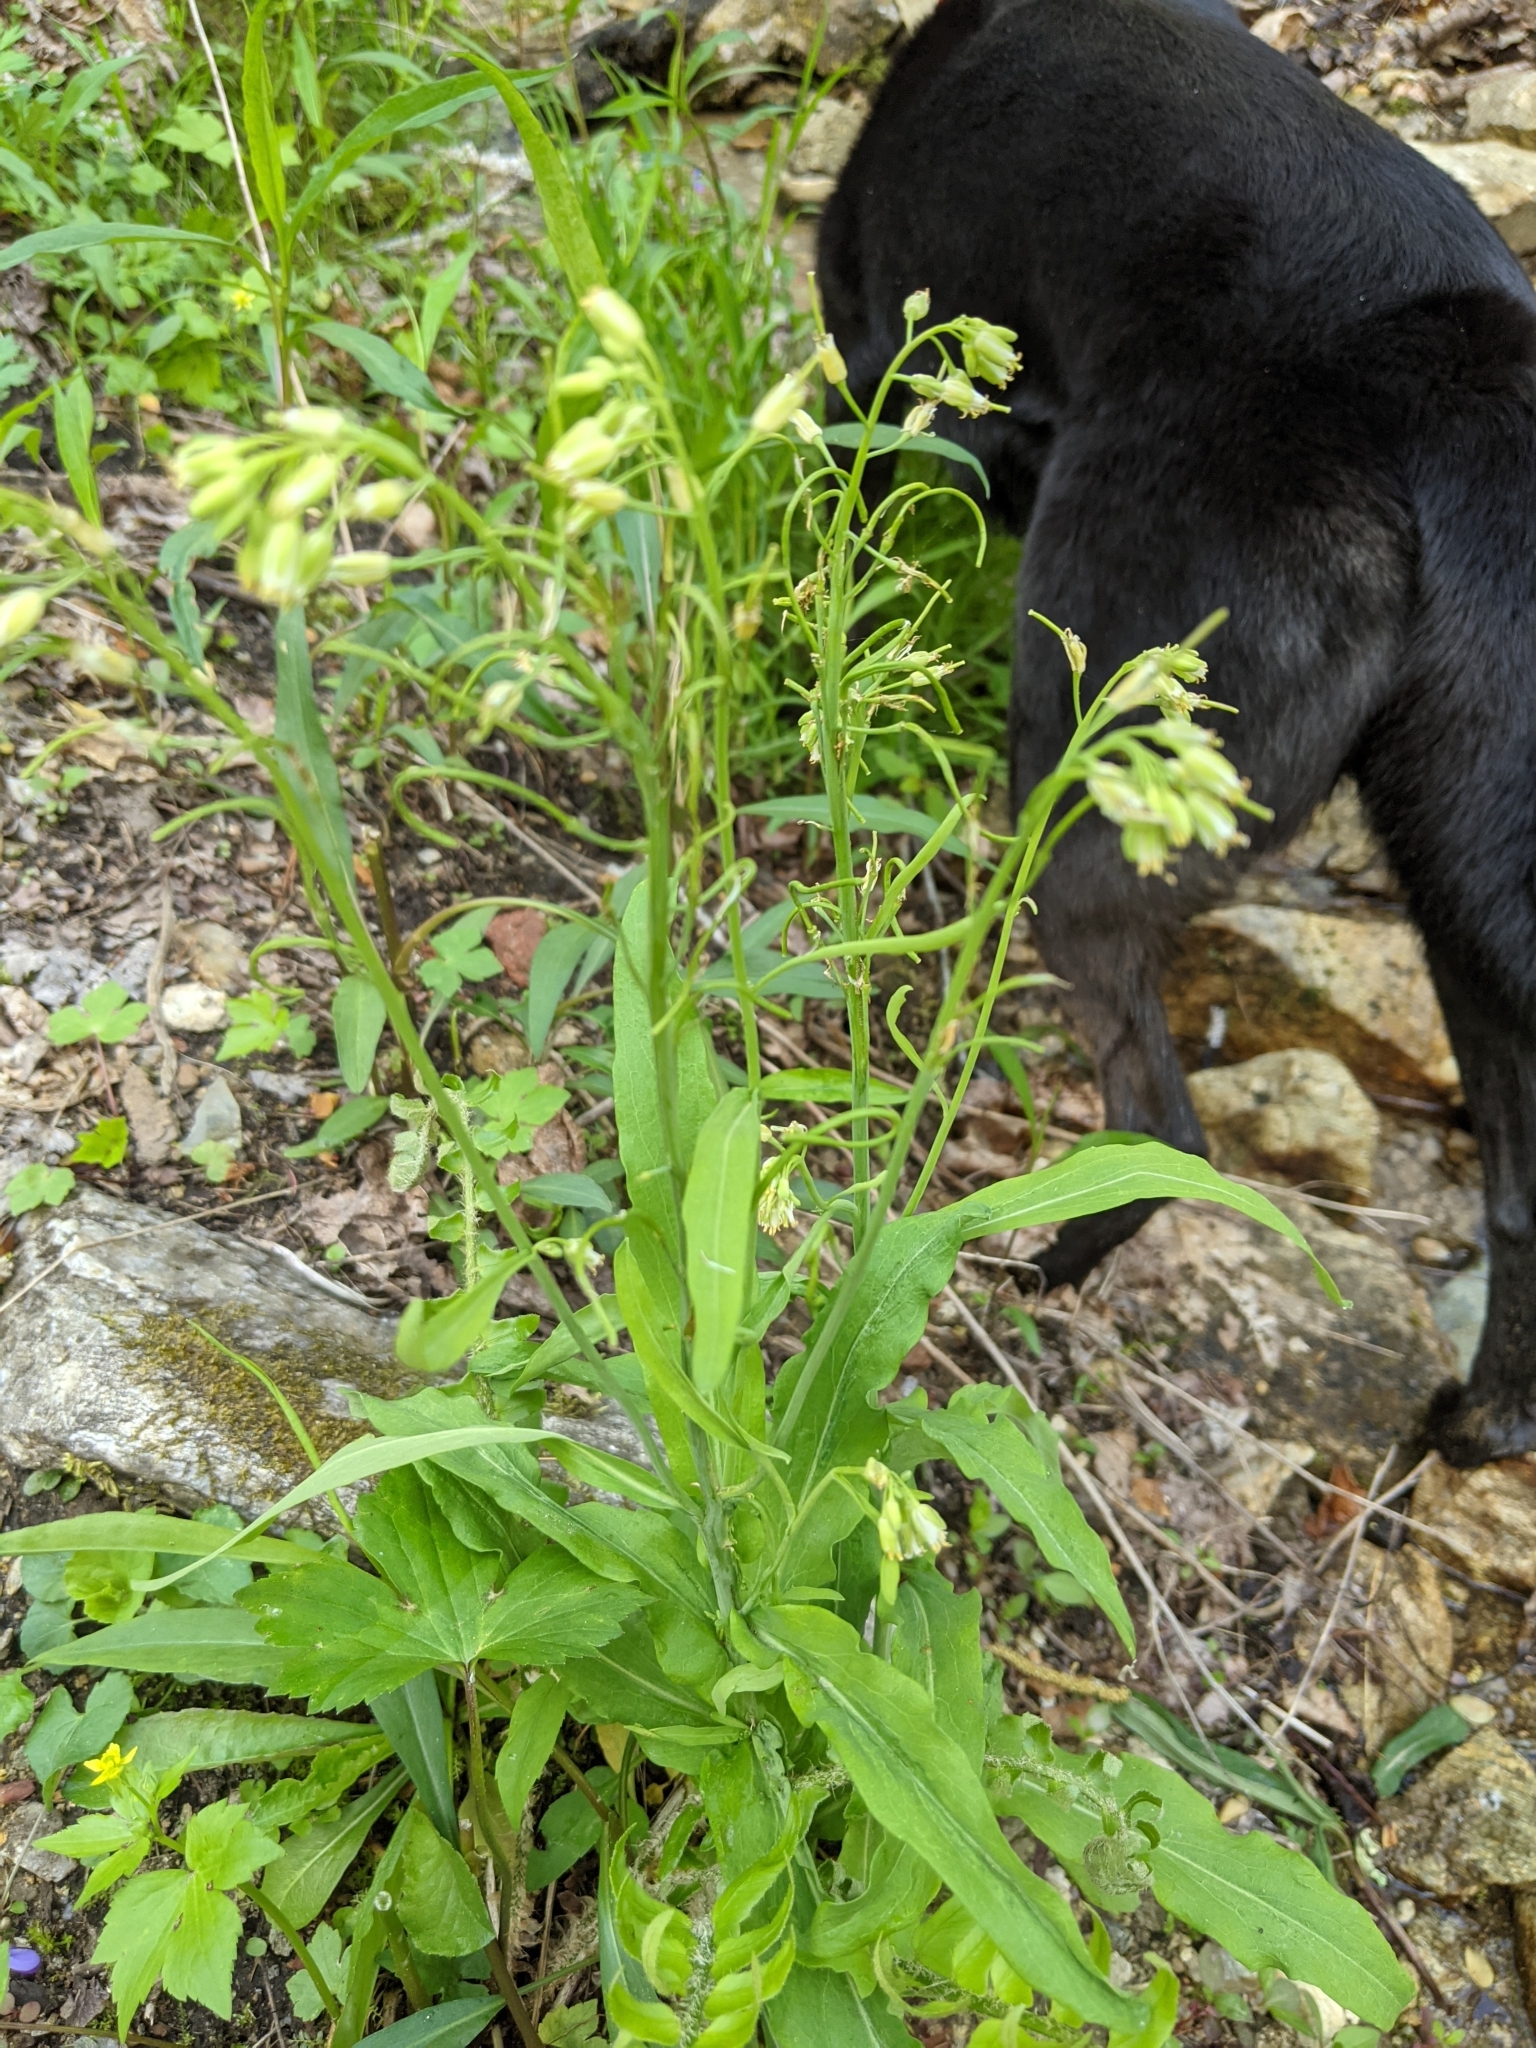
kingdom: Plantae
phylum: Tracheophyta
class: Magnoliopsida
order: Brassicales
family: Brassicaceae
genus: Borodinia
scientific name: Borodinia laevigata
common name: Smooth rockcress
